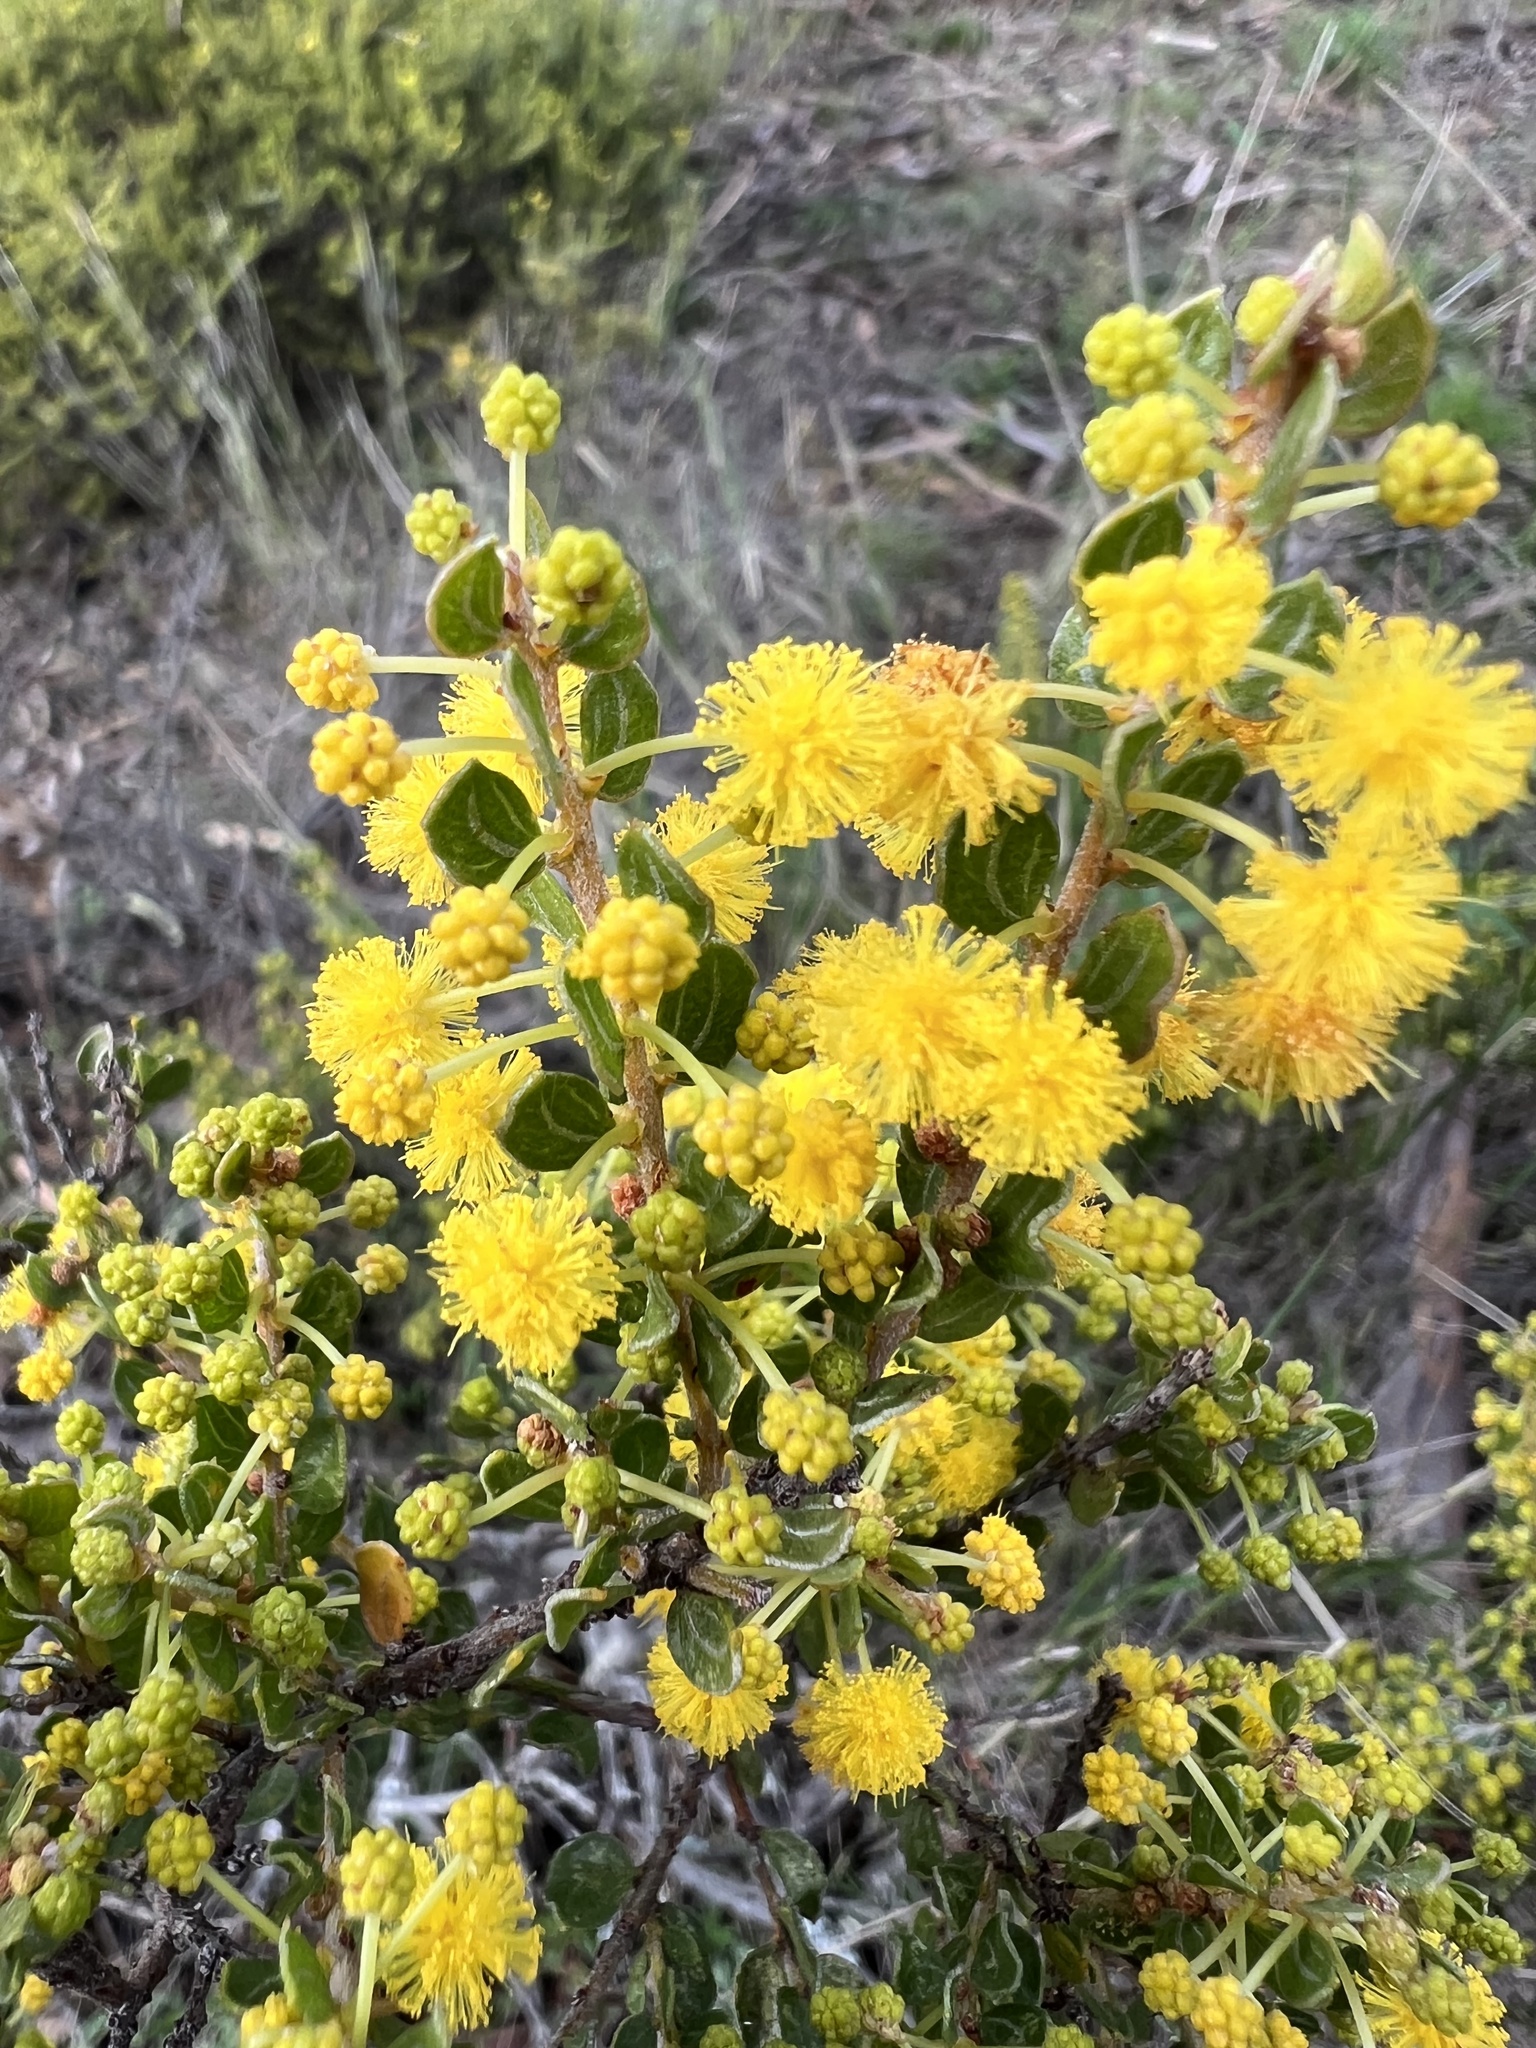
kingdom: Plantae
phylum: Tracheophyta
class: Magnoliopsida
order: Fabales
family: Fabaceae
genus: Acacia
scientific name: Acacia glandulicarpa
